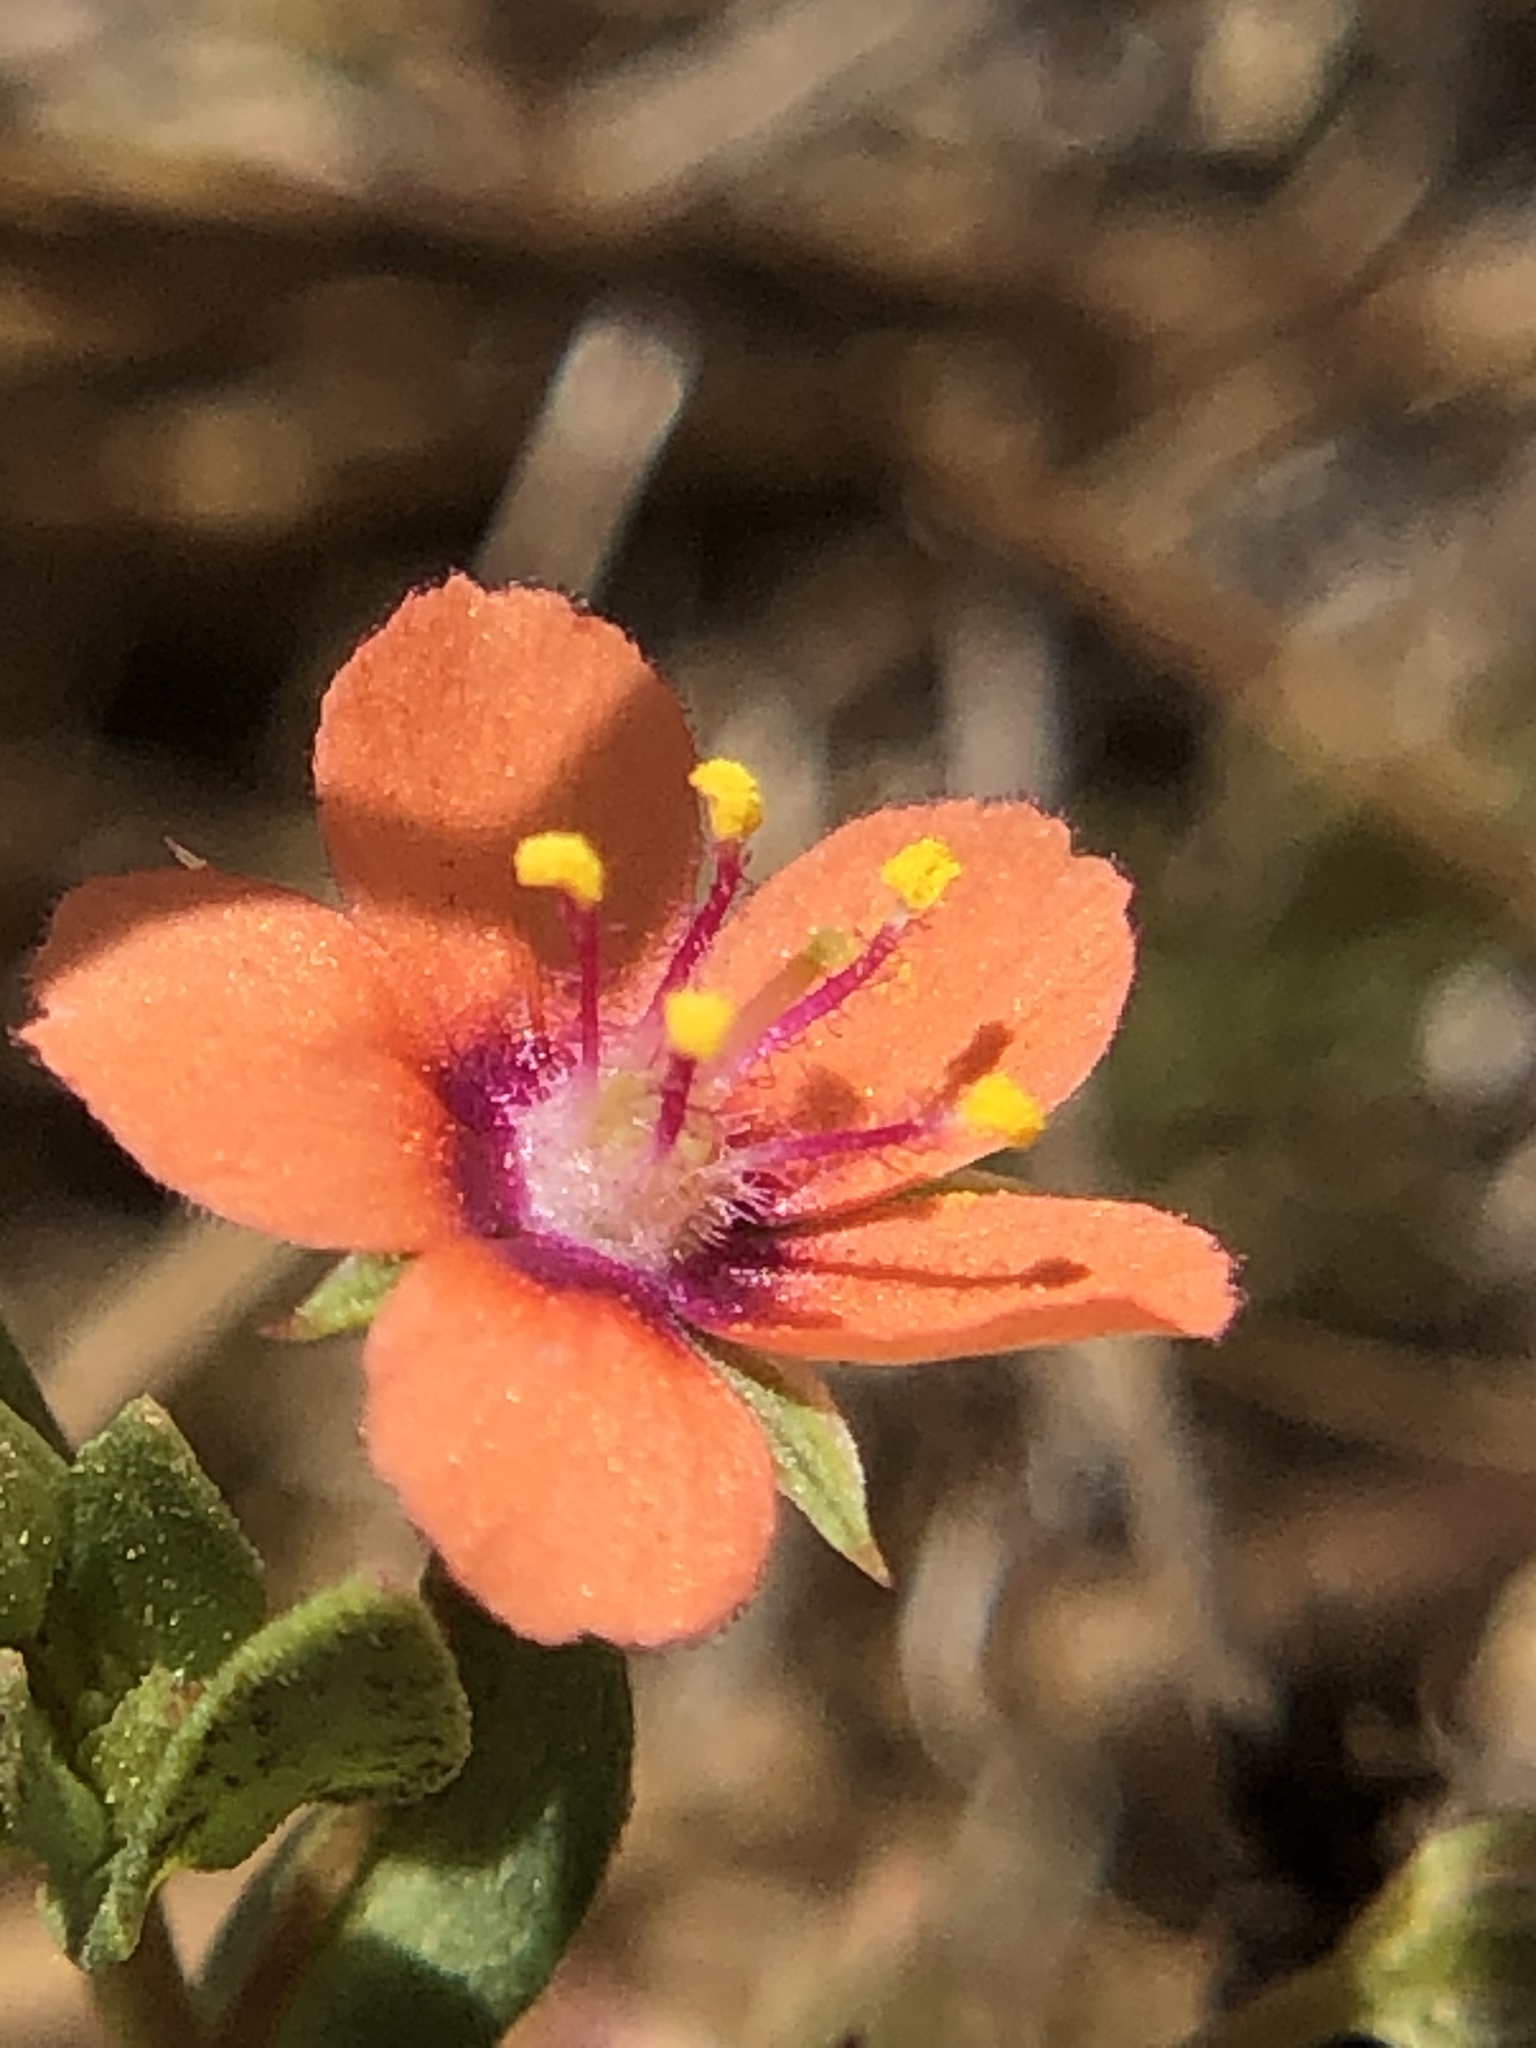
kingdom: Plantae
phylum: Tracheophyta
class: Magnoliopsida
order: Ericales
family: Primulaceae
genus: Lysimachia
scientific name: Lysimachia arvensis
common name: Scarlet pimpernel
